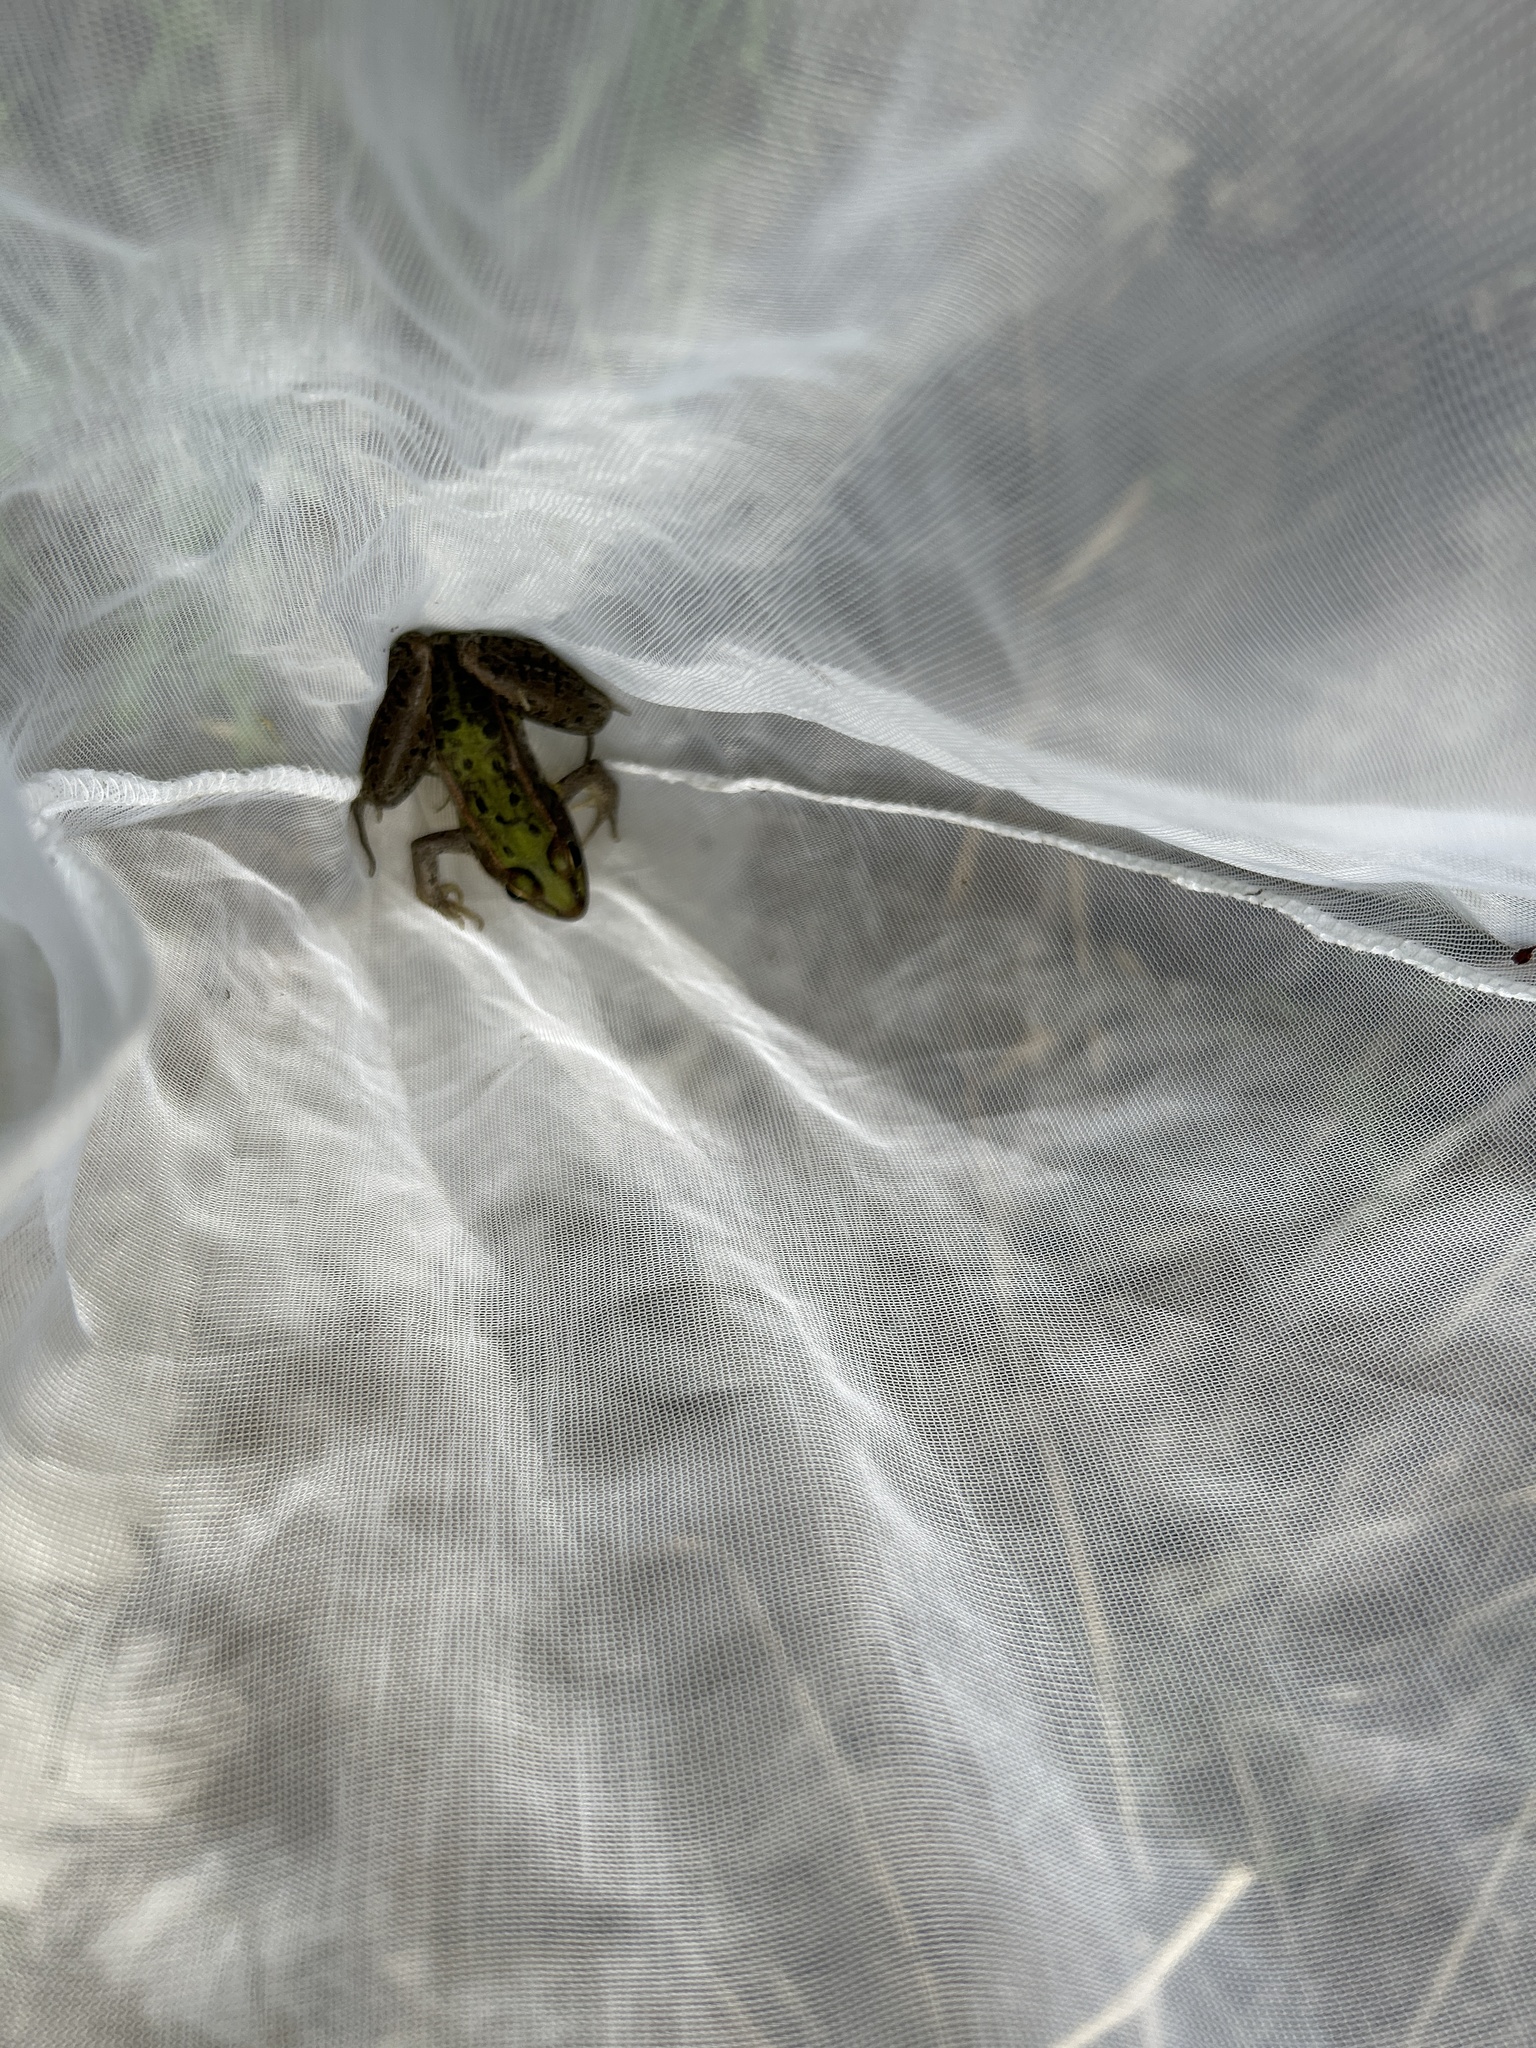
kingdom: Animalia
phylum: Chordata
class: Amphibia
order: Anura
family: Ranidae
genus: Lithobates
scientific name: Lithobates sphenocephalus
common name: Southern leopard frog
